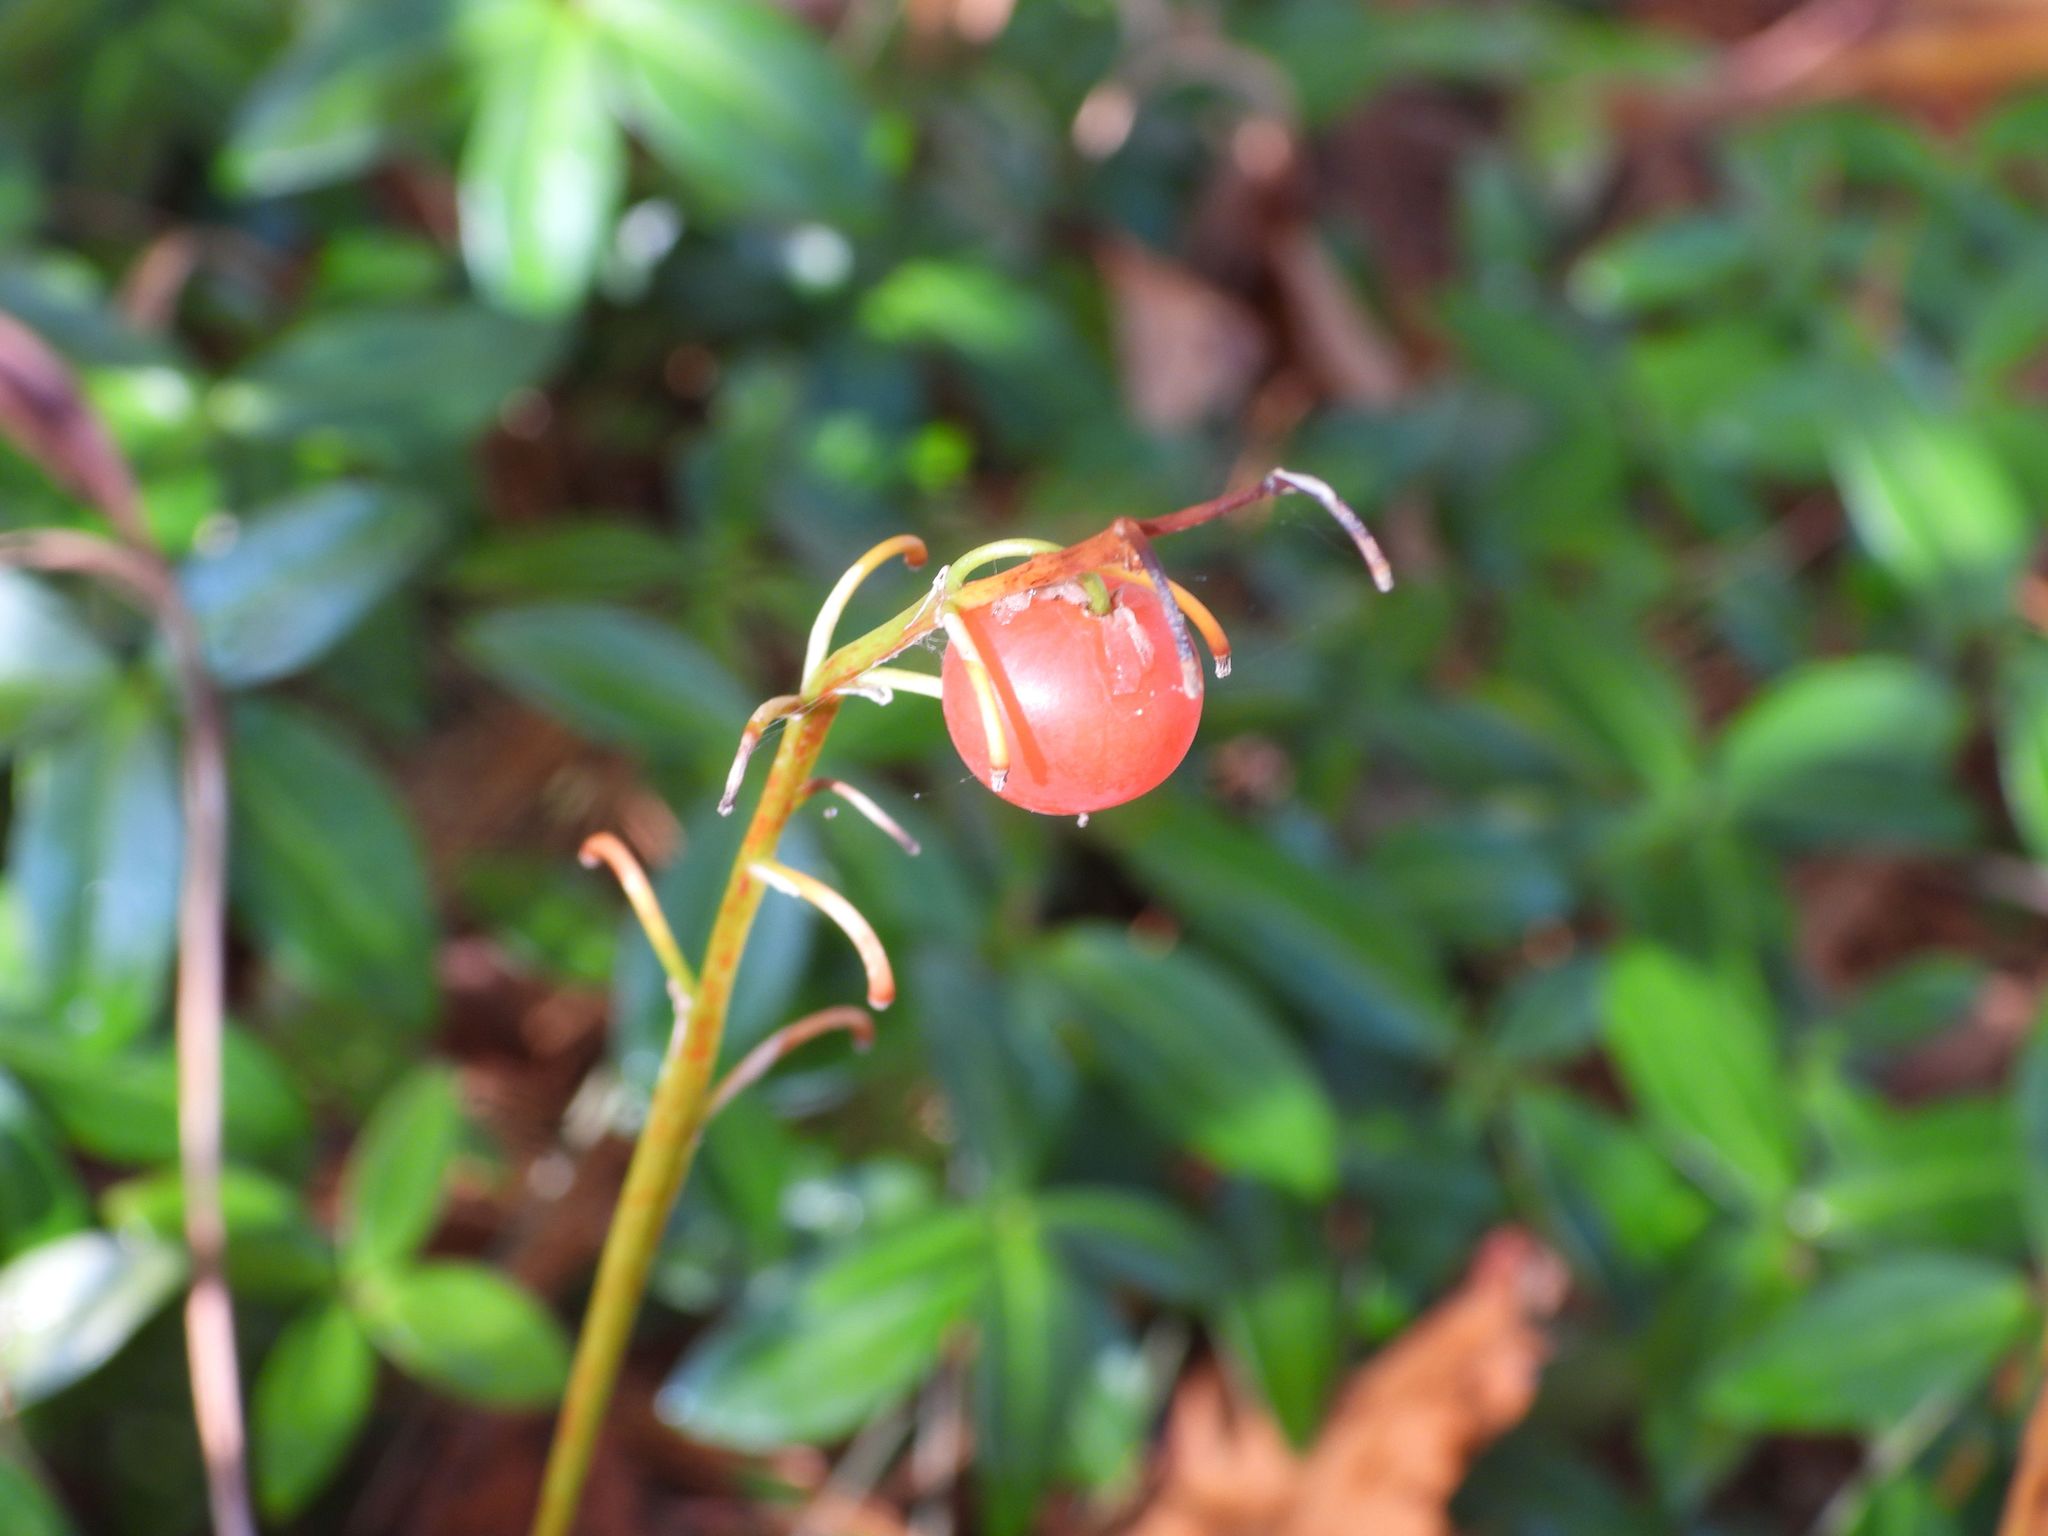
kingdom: Plantae
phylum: Tracheophyta
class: Magnoliopsida
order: Gentianales
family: Apocynaceae
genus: Vinca
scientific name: Vinca minor
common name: Lesser periwinkle
